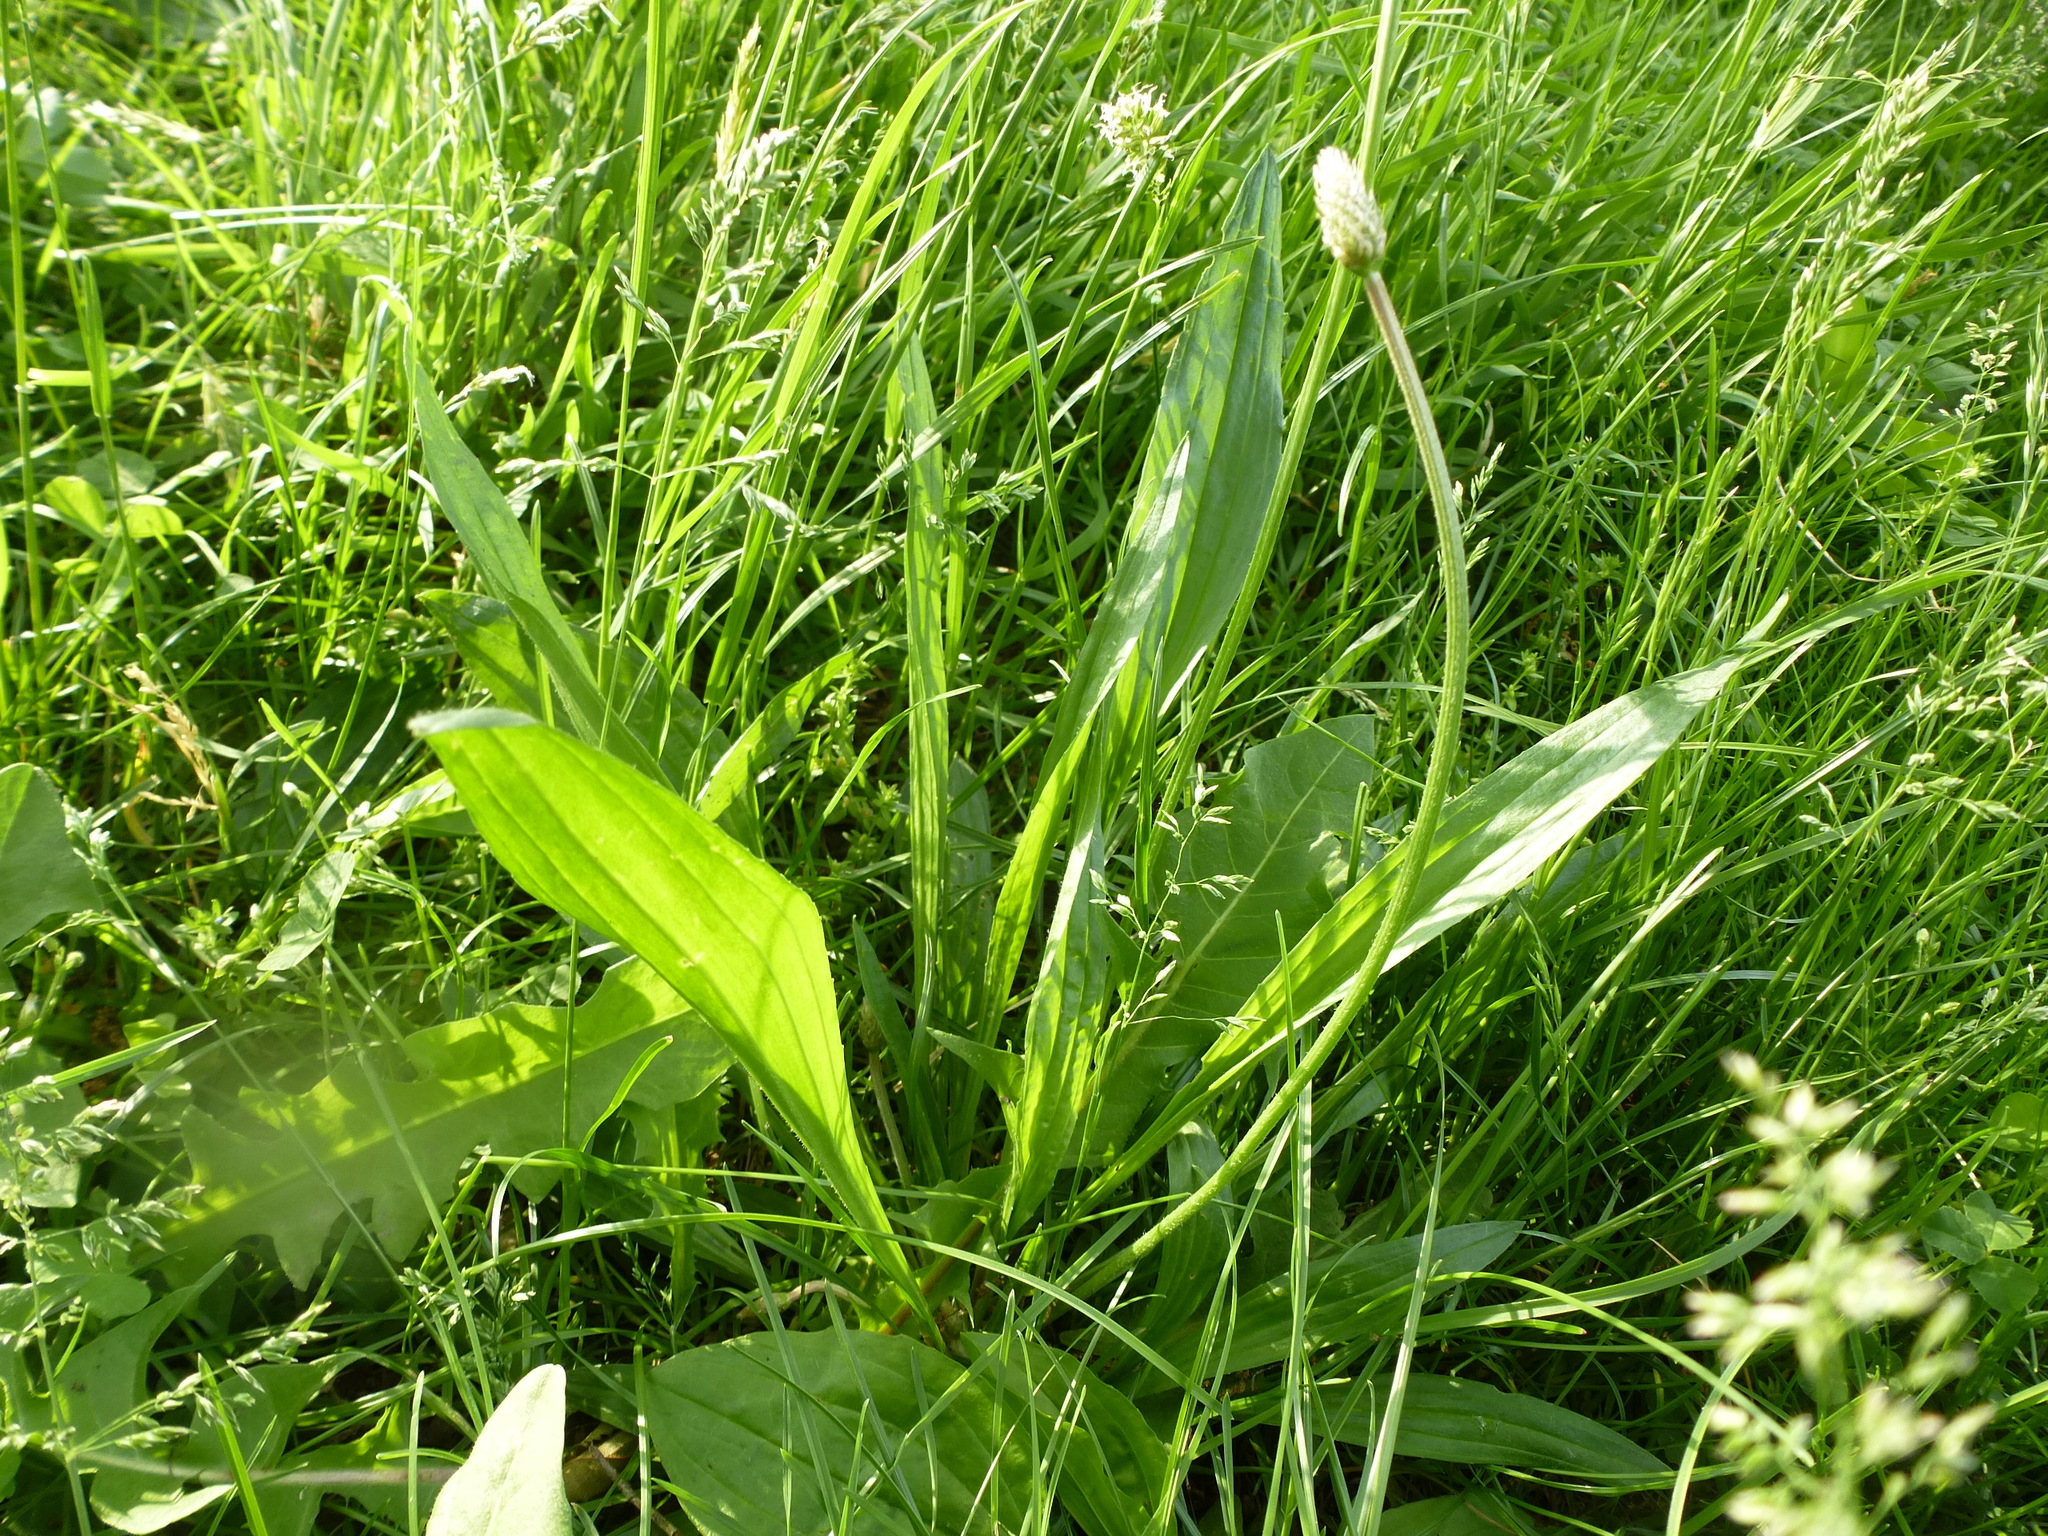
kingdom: Plantae
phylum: Tracheophyta
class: Magnoliopsida
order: Lamiales
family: Plantaginaceae
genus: Plantago
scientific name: Plantago lanceolata
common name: Ribwort plantain
